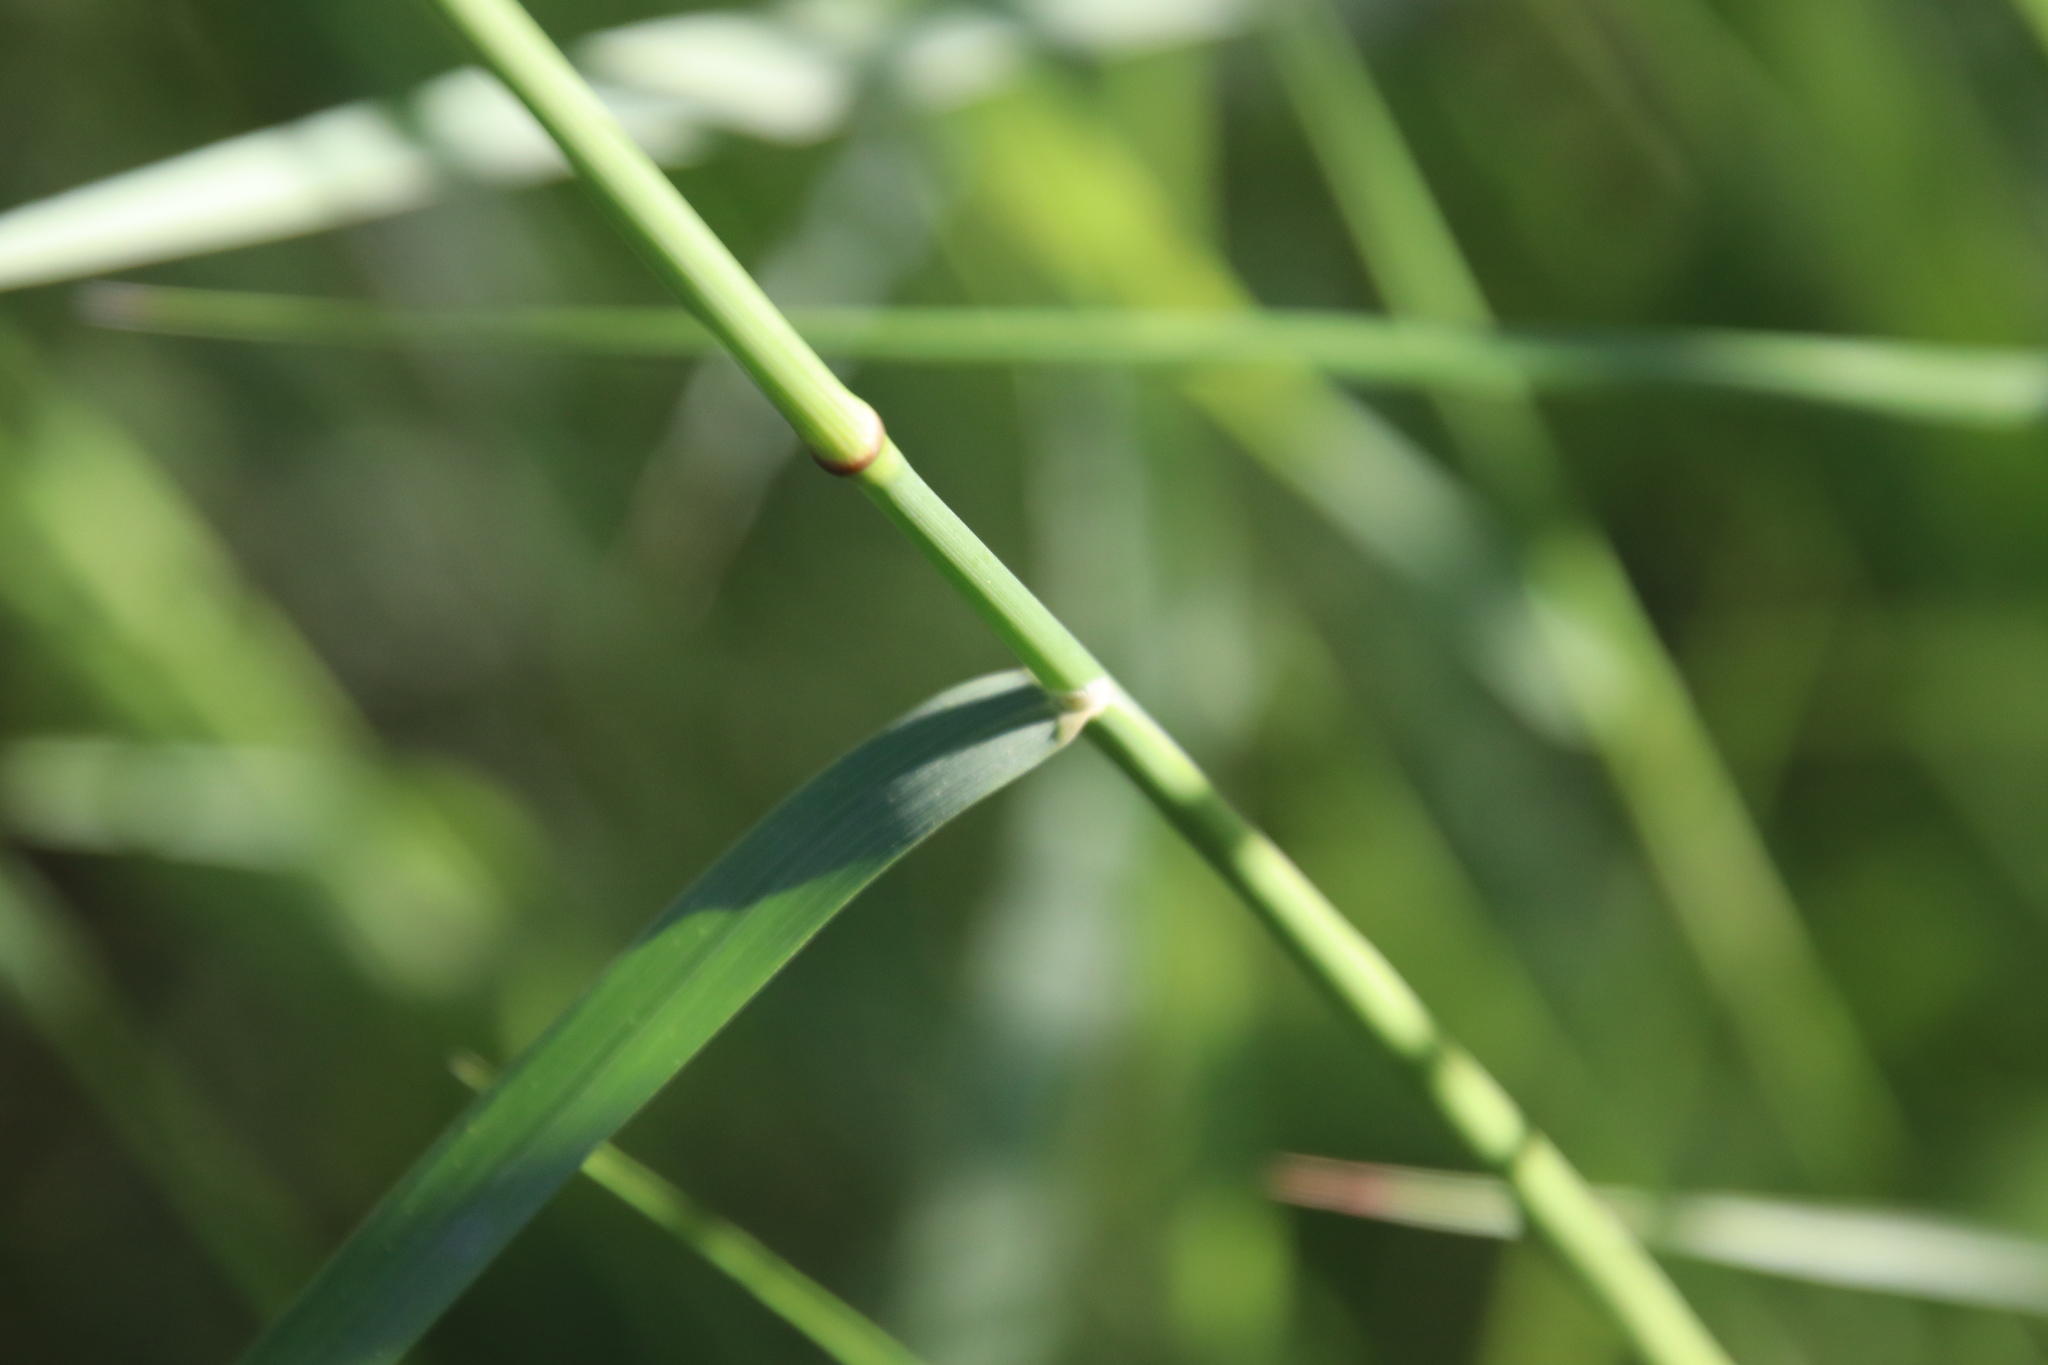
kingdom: Plantae
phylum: Tracheophyta
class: Liliopsida
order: Poales
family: Poaceae
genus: Oloptum
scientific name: Oloptum miliaceum
